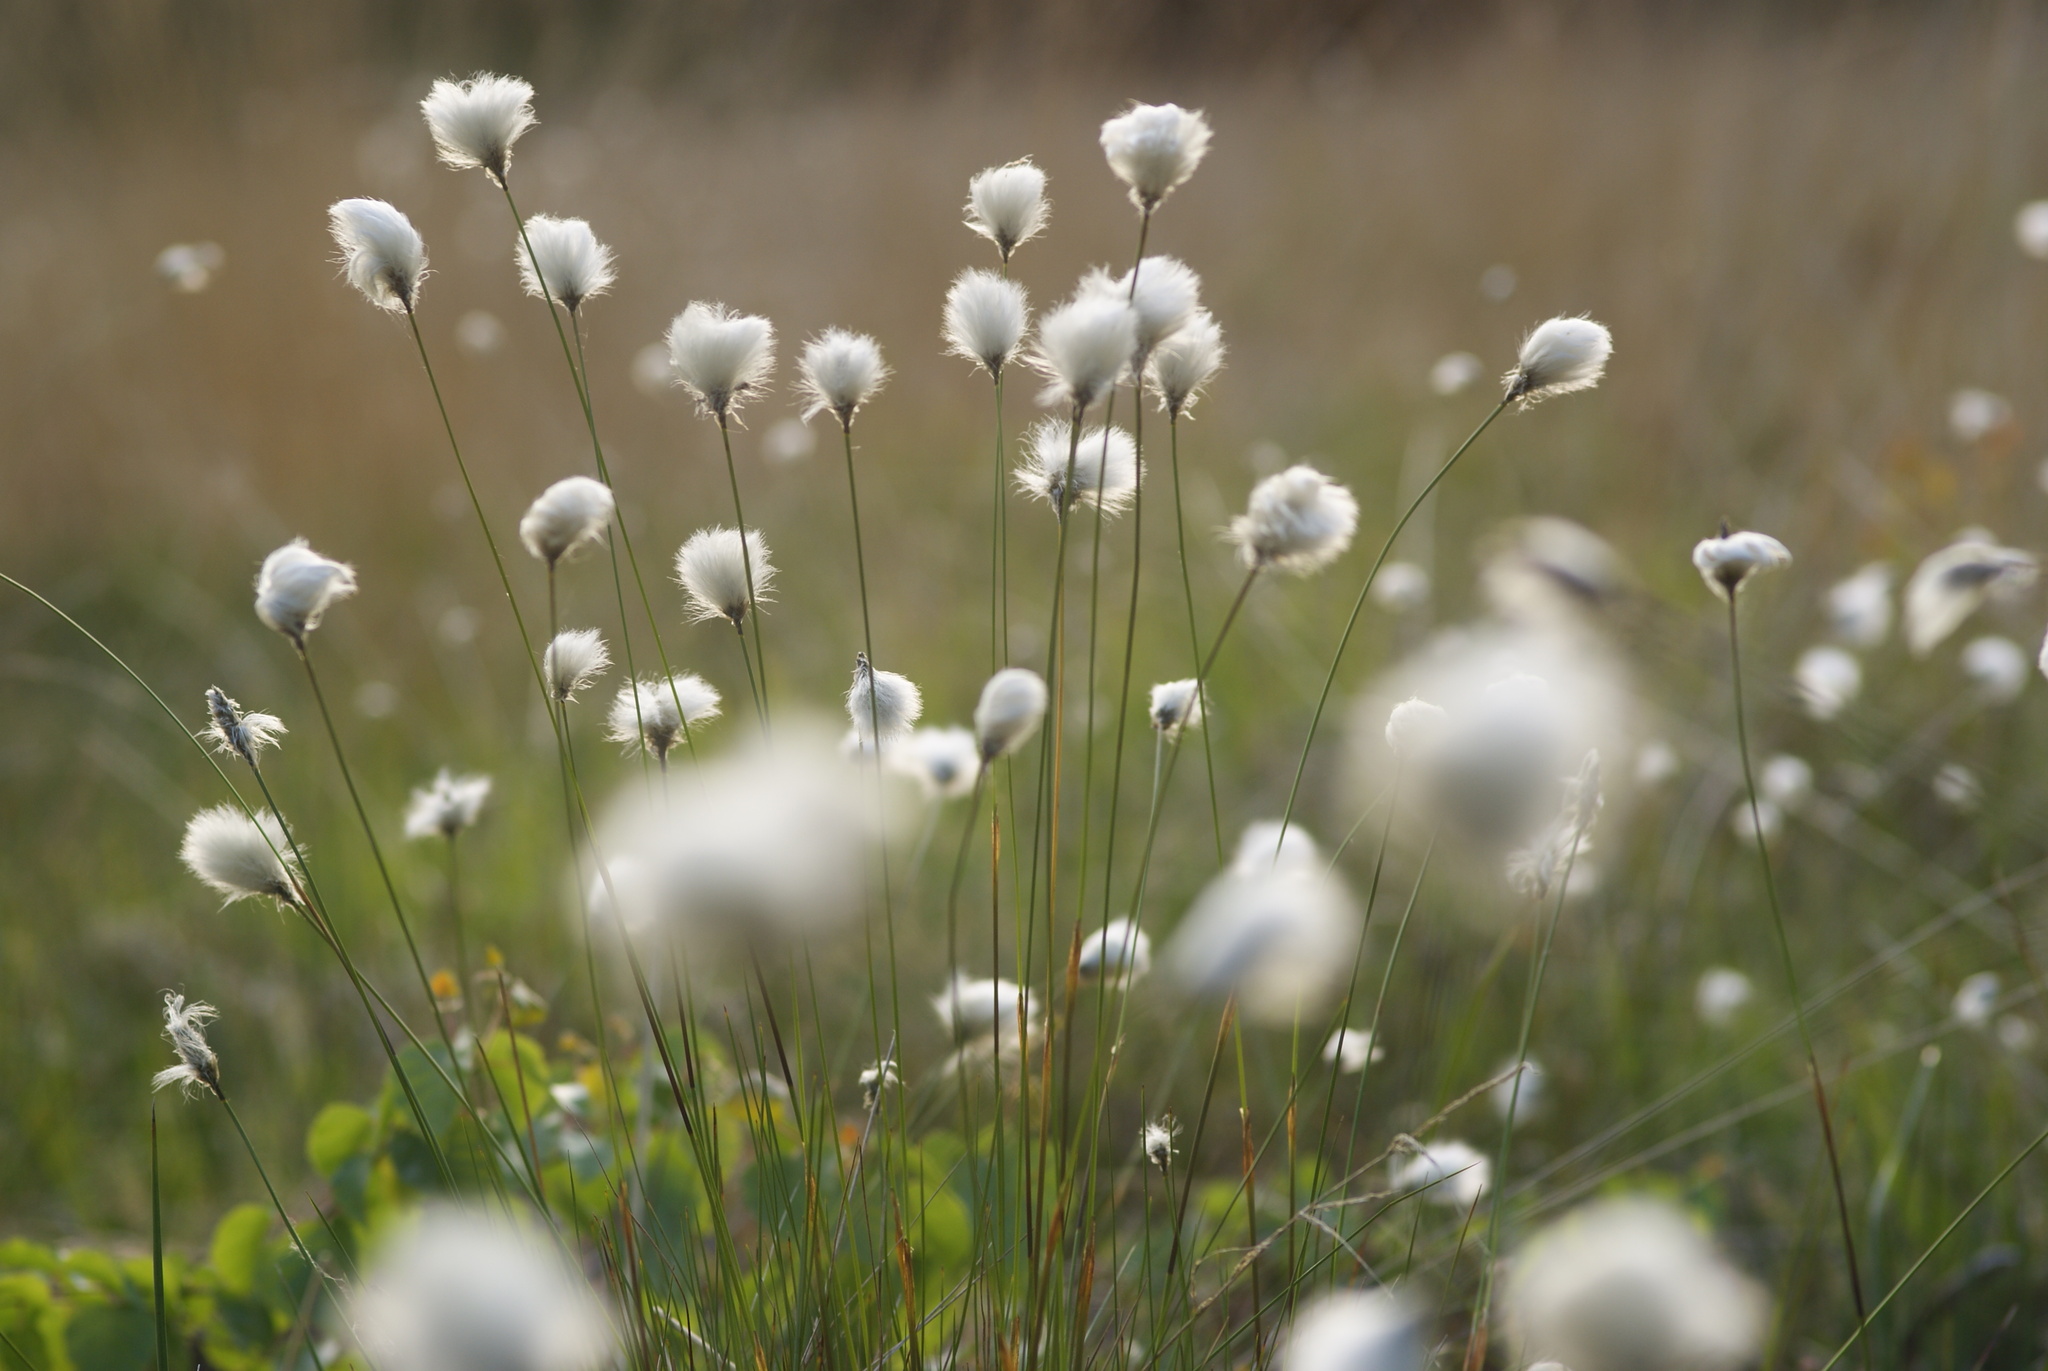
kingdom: Plantae
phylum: Tracheophyta
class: Liliopsida
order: Poales
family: Cyperaceae
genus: Eriophorum
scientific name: Eriophorum vaginatum
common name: Hare's-tail cottongrass
